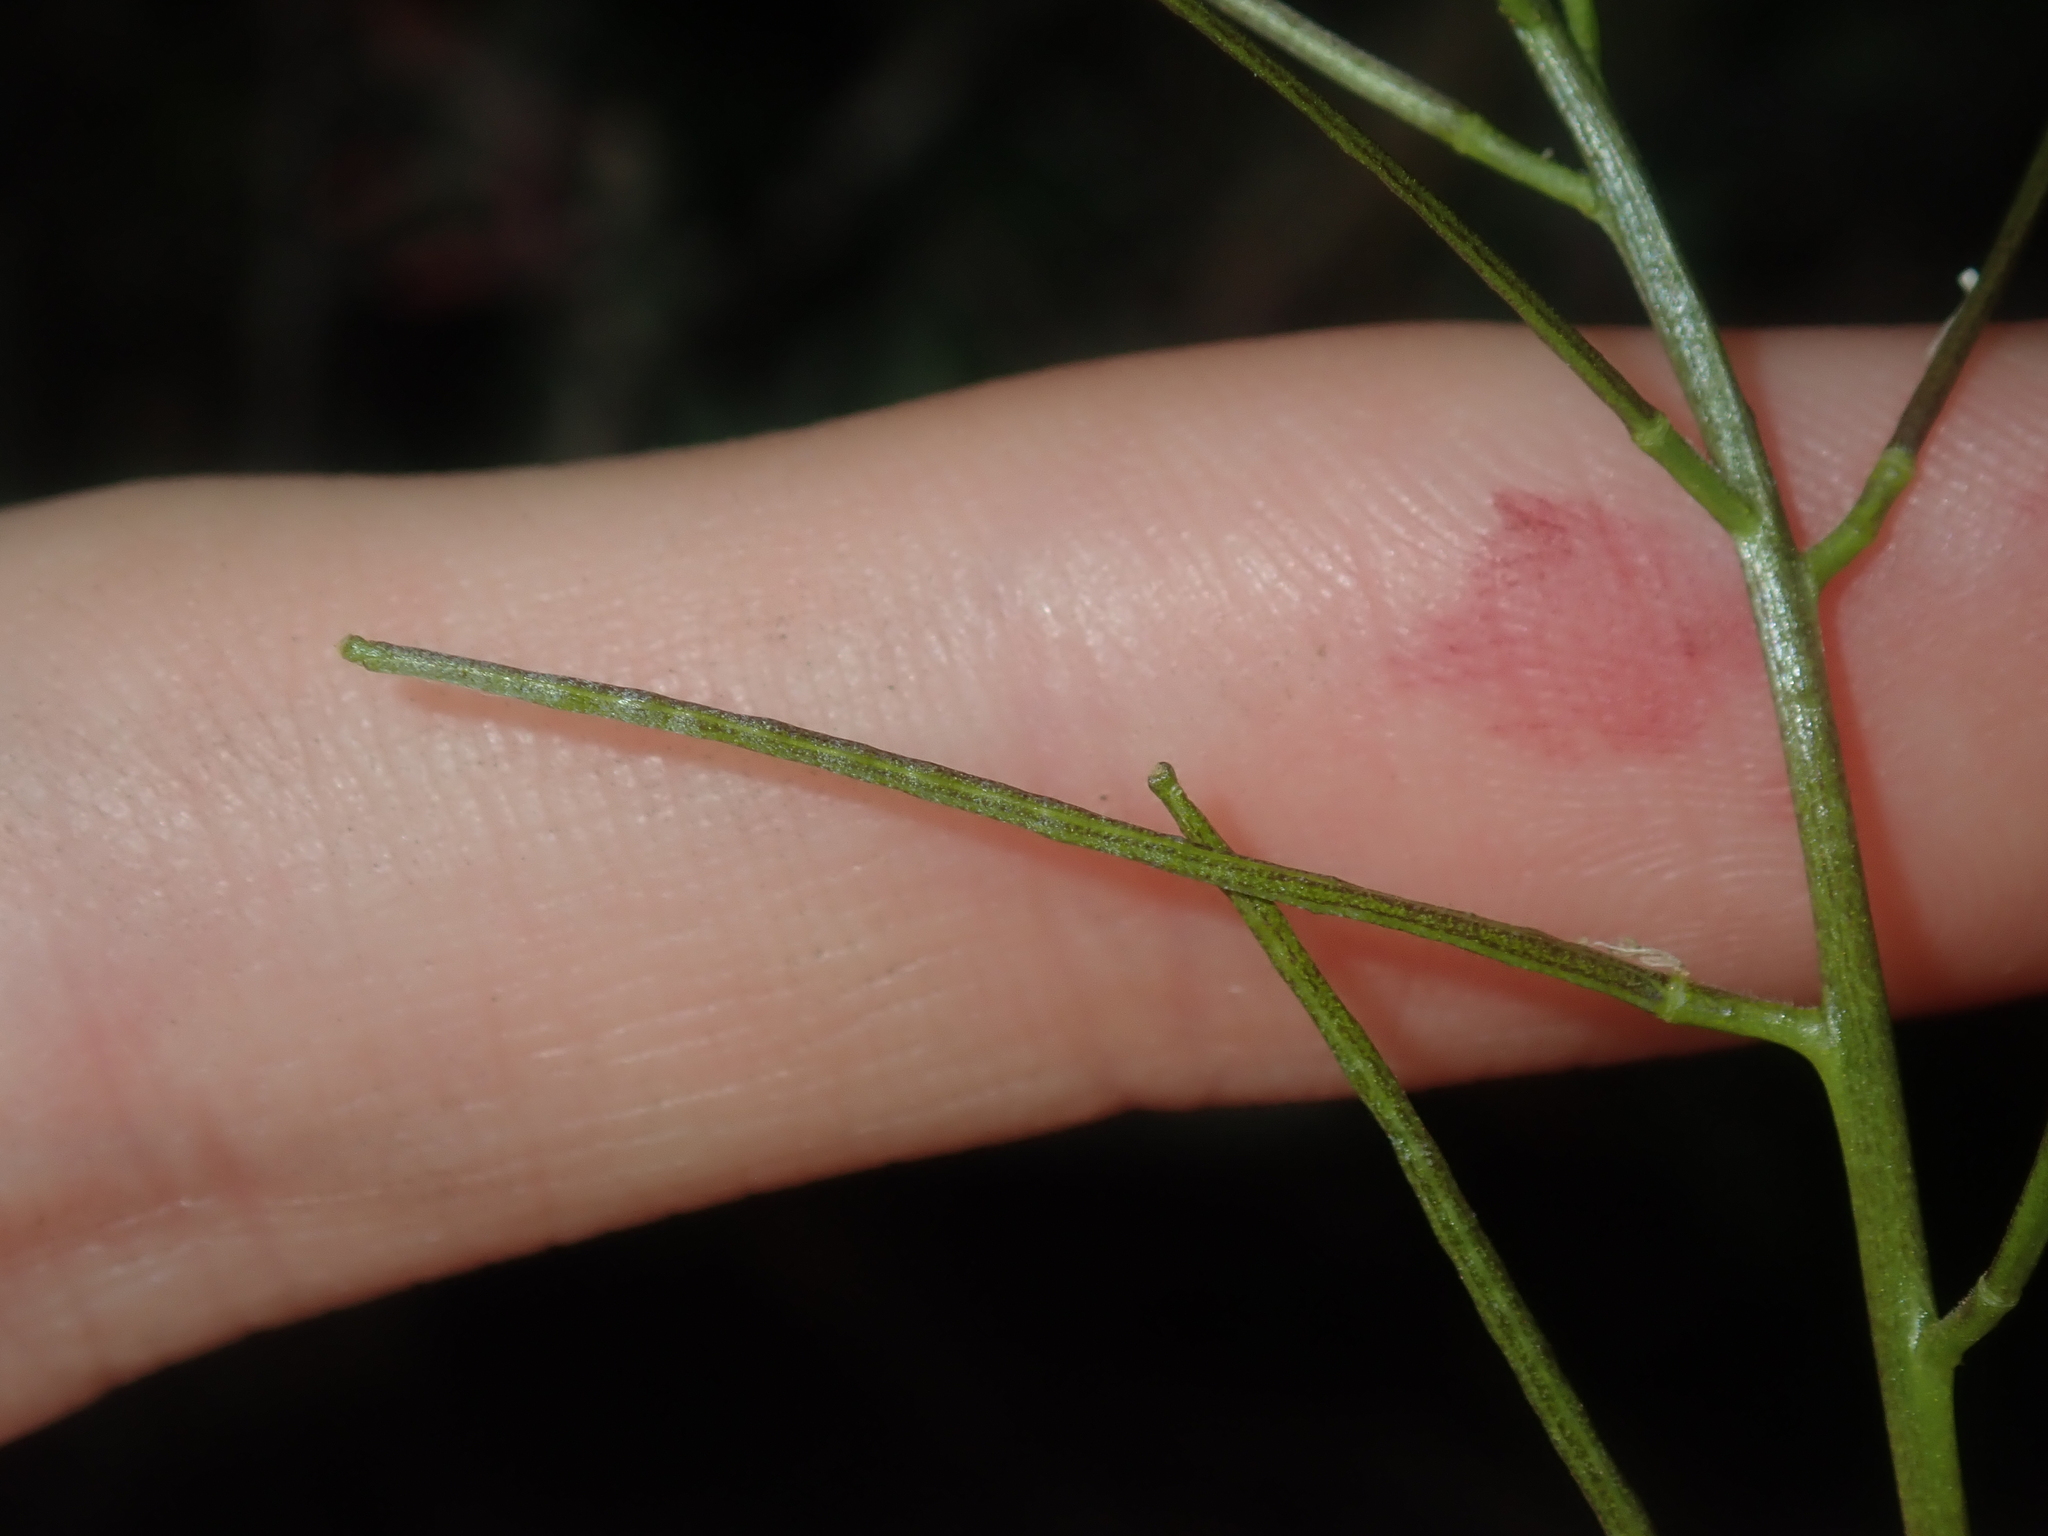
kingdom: Plantae
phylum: Tracheophyta
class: Magnoliopsida
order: Brassicales
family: Brassicaceae
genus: Sisymbrium
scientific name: Sisymbrium irio
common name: London rocket
